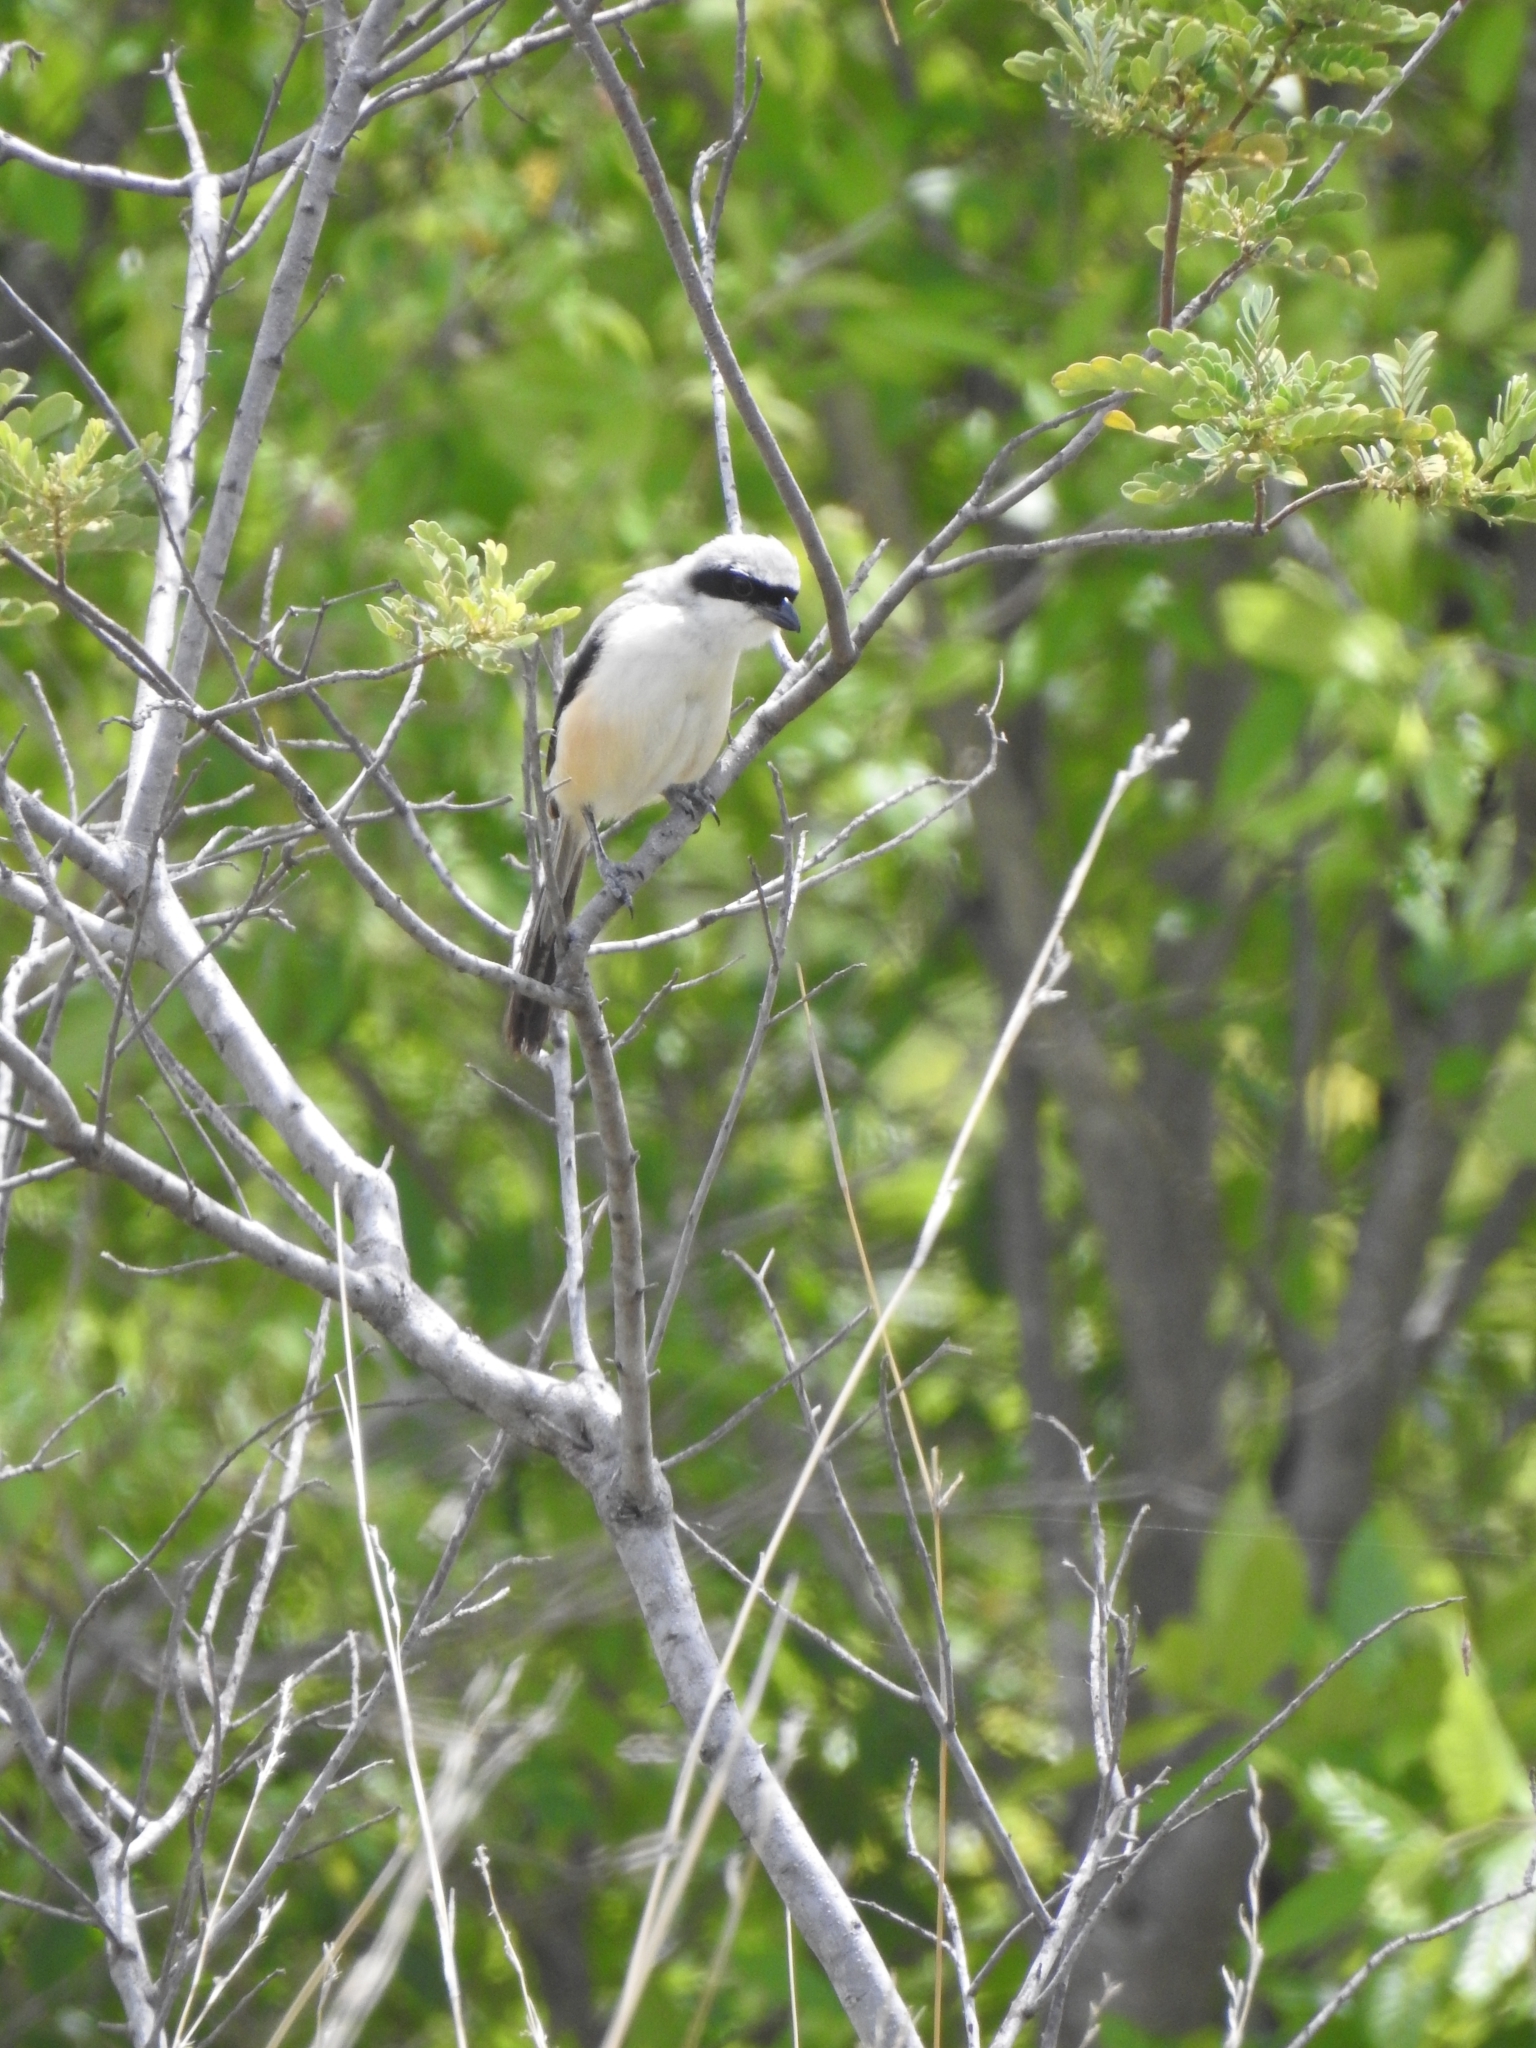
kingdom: Animalia
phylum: Chordata
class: Aves
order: Passeriformes
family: Laniidae
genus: Lanius
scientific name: Lanius schach
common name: Long-tailed shrike
